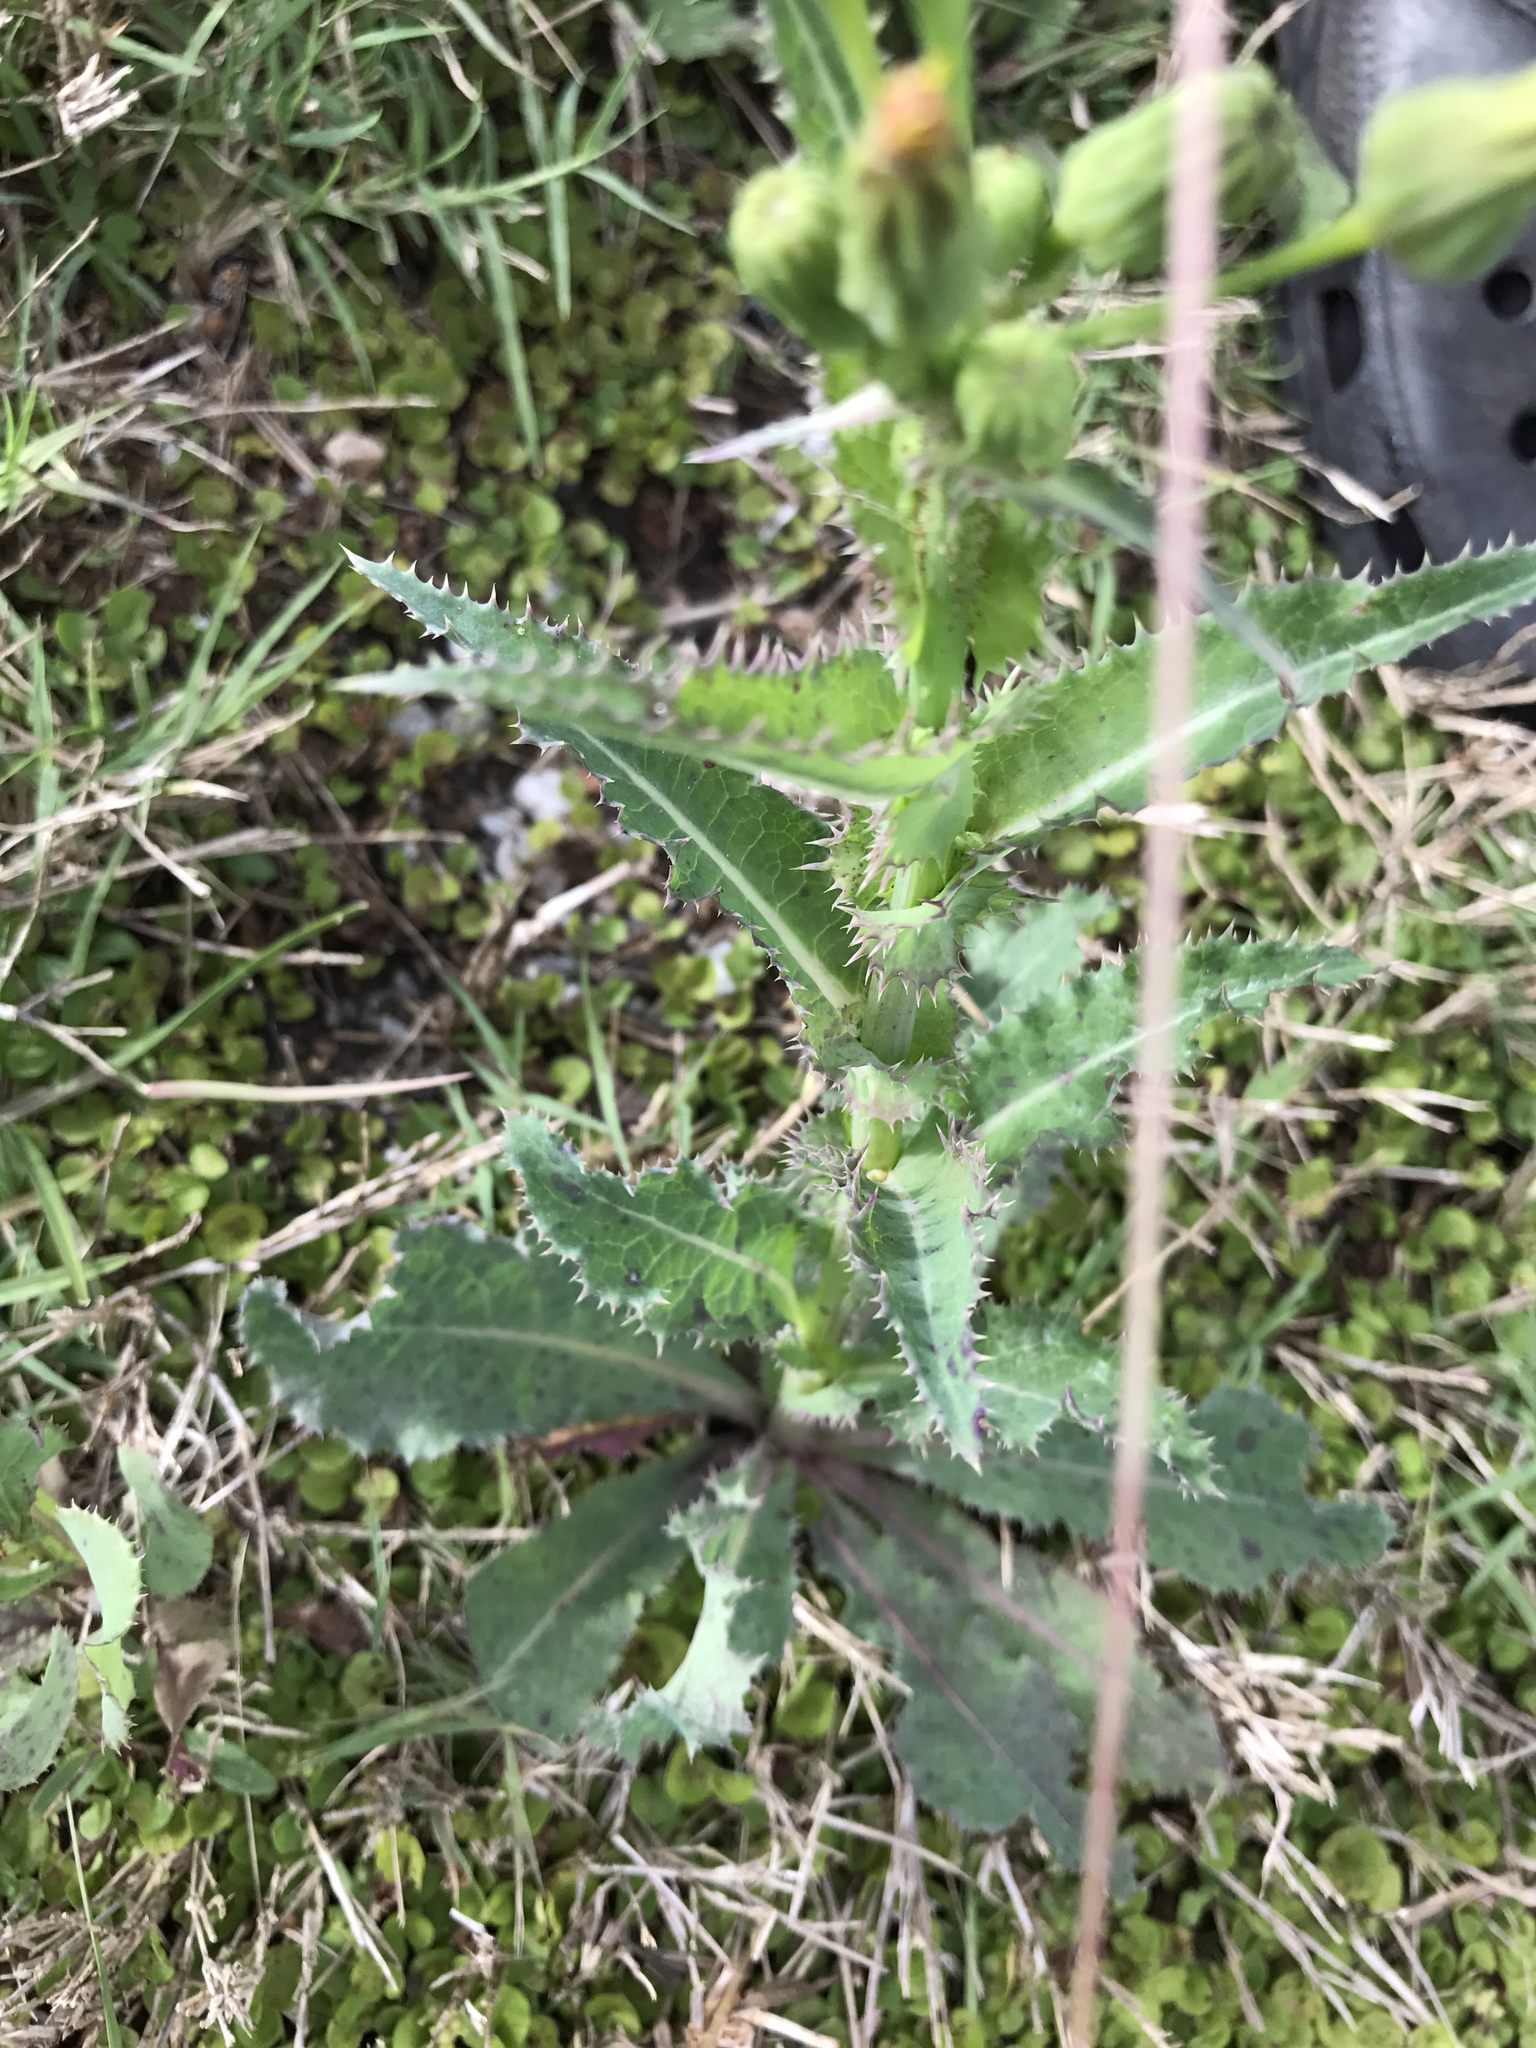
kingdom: Plantae
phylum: Tracheophyta
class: Magnoliopsida
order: Asterales
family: Asteraceae
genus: Sonchus
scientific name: Sonchus asper
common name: Prickly sow-thistle
